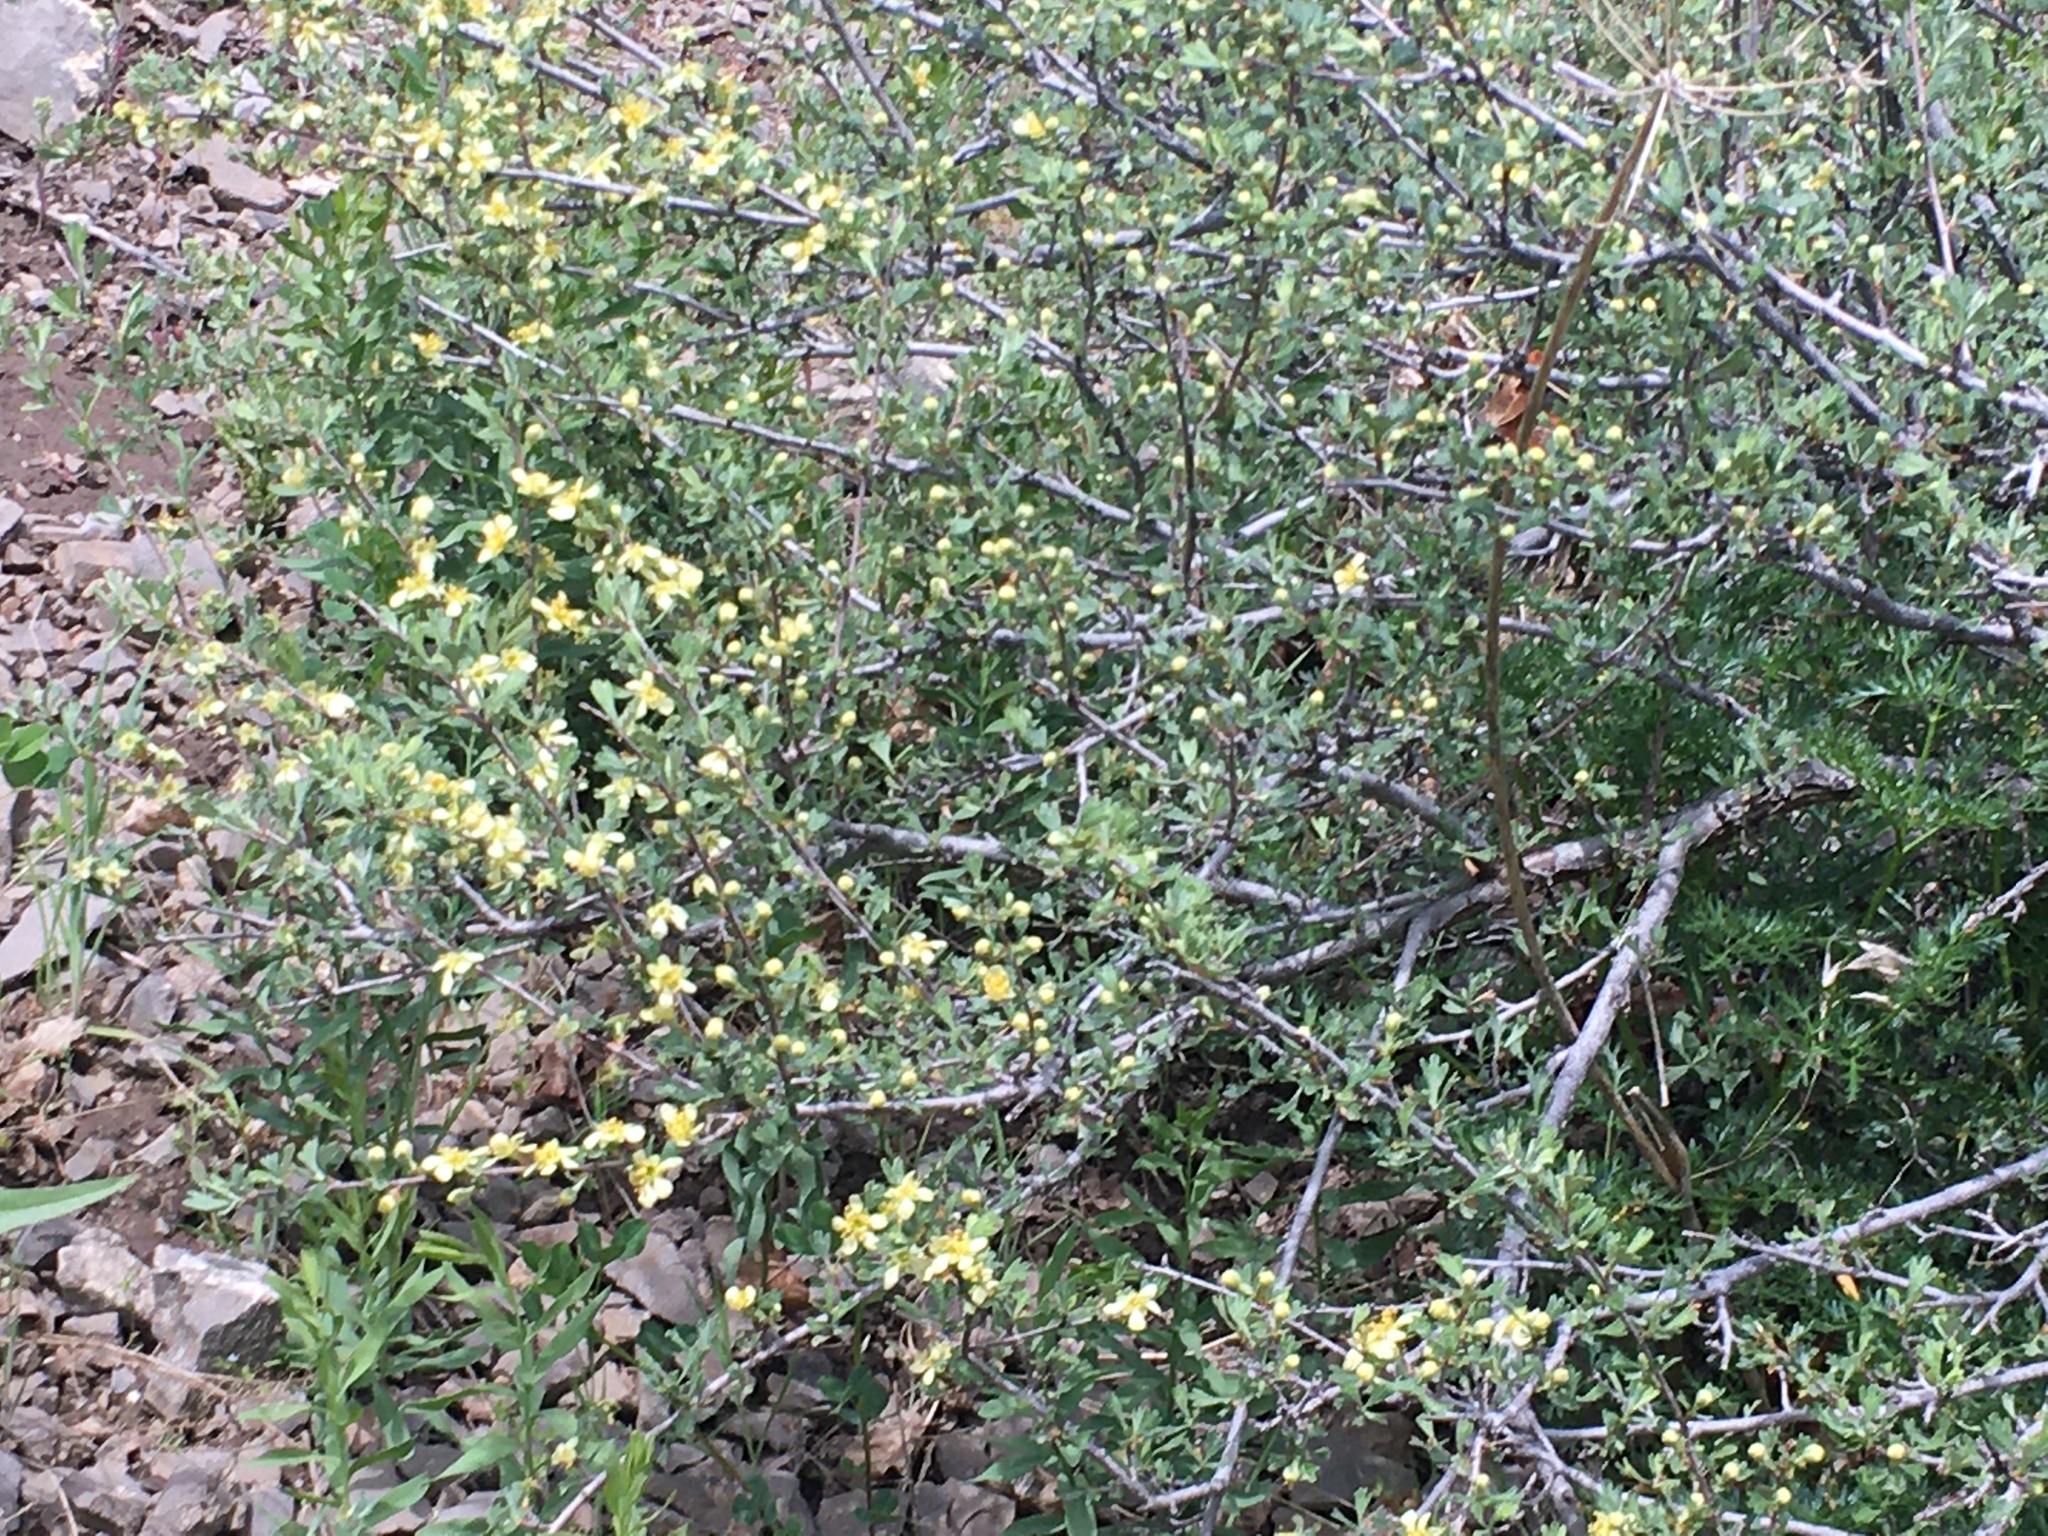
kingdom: Plantae
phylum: Tracheophyta
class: Magnoliopsida
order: Rosales
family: Rosaceae
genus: Purshia
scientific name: Purshia tridentata
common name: Antelope bitterbrush
